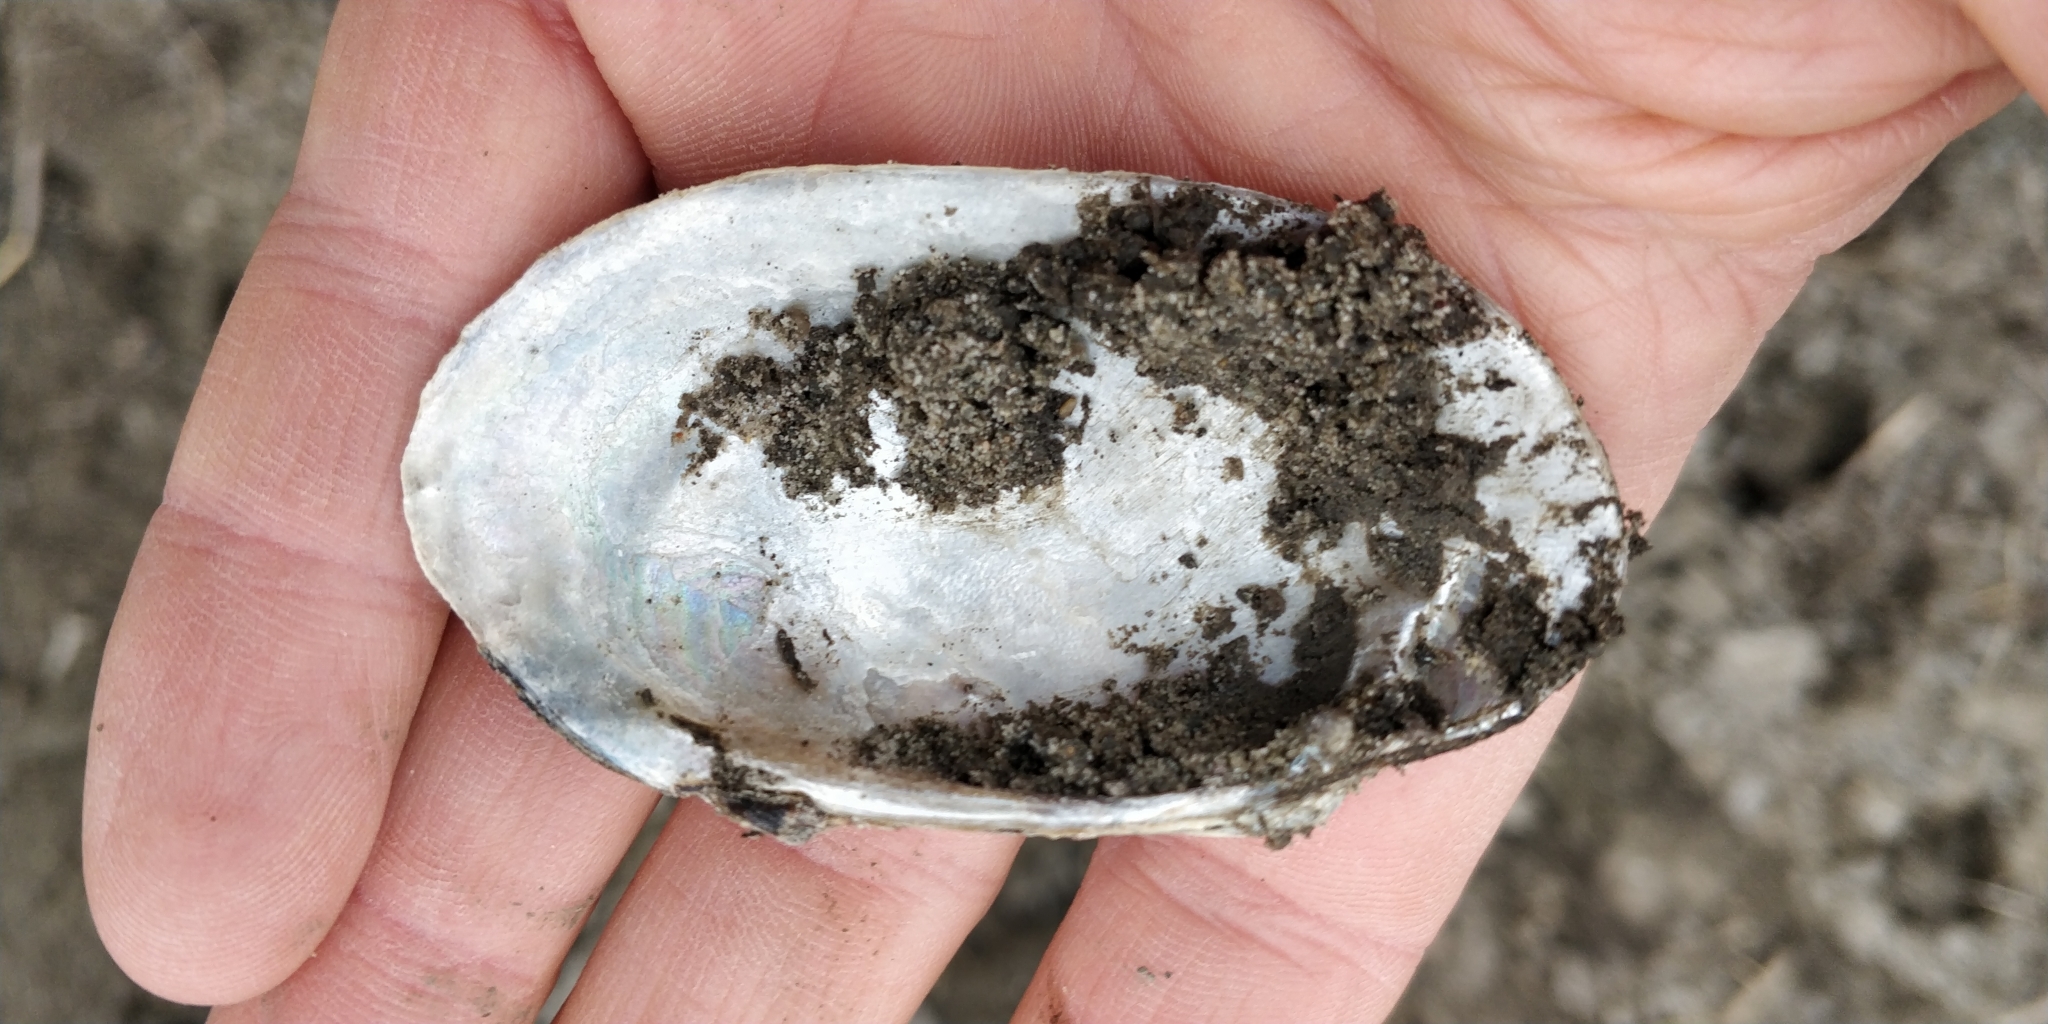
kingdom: Animalia
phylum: Mollusca
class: Bivalvia
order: Unionida
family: Unionidae
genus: Lampsilis
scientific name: Lampsilis siliquoidea
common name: Fatmucket
